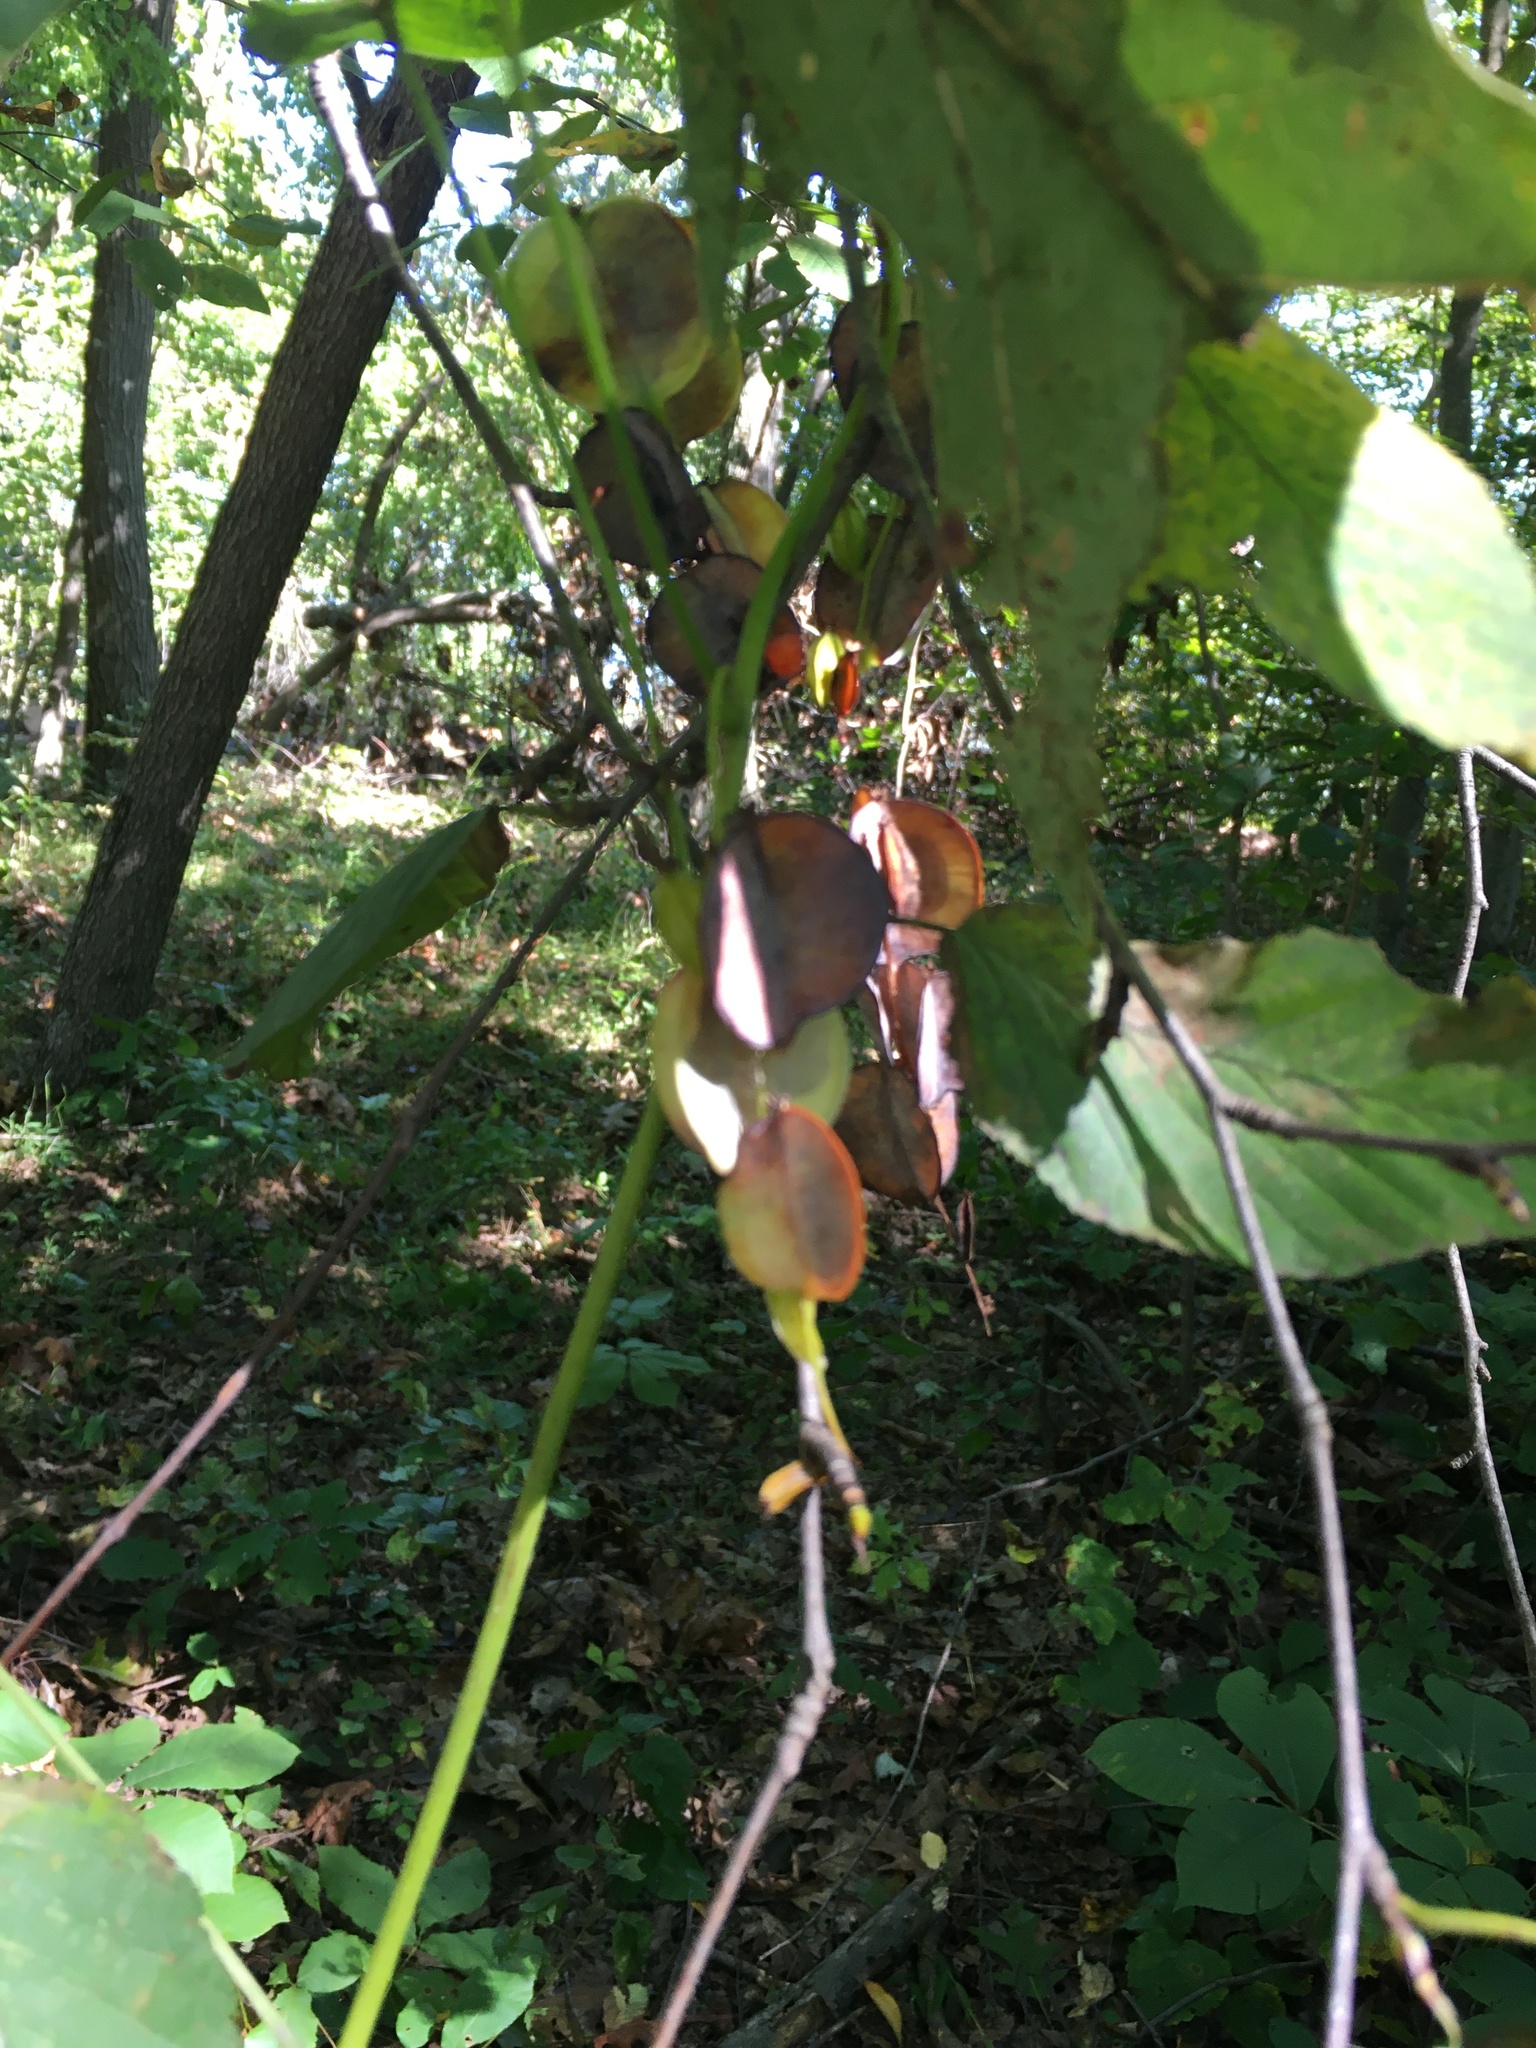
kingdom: Plantae
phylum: Tracheophyta
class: Liliopsida
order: Dioscoreales
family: Dioscoreaceae
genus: Dioscorea
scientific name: Dioscorea villosa
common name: Wild yam
